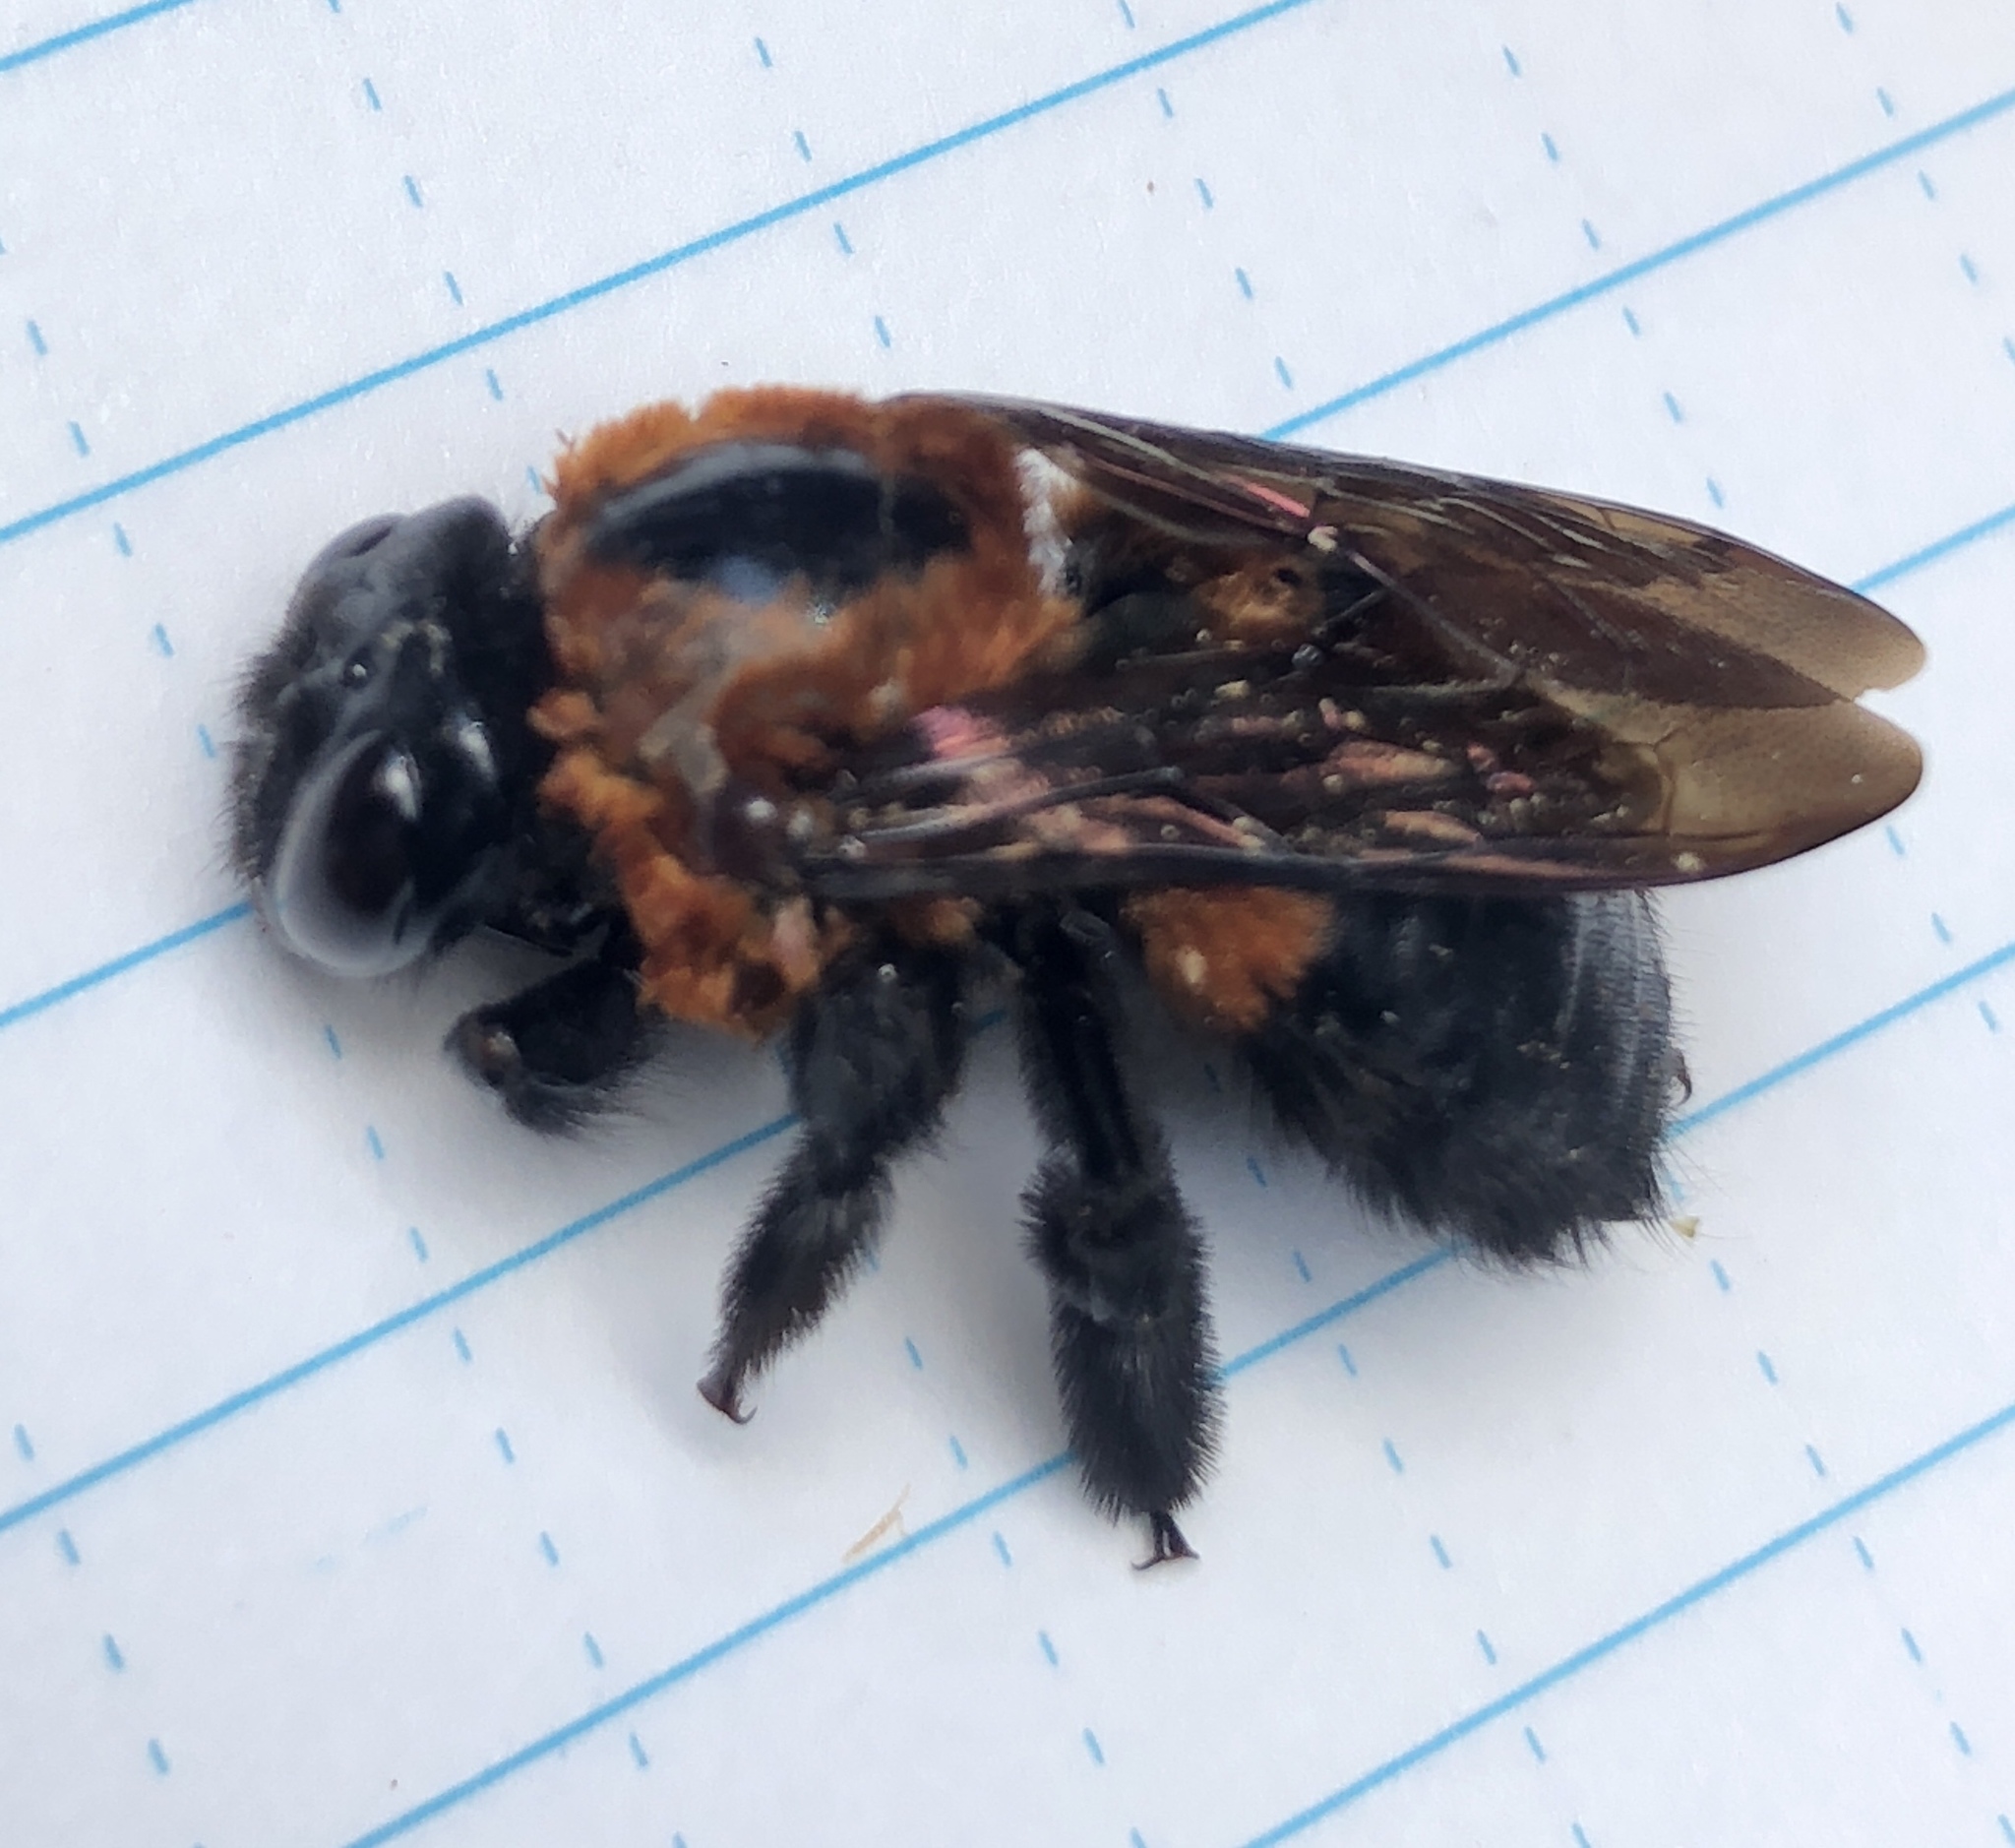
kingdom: Animalia
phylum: Arthropoda
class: Insecta
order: Hymenoptera
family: Apidae
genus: Xylocopa
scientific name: Xylocopa similis
